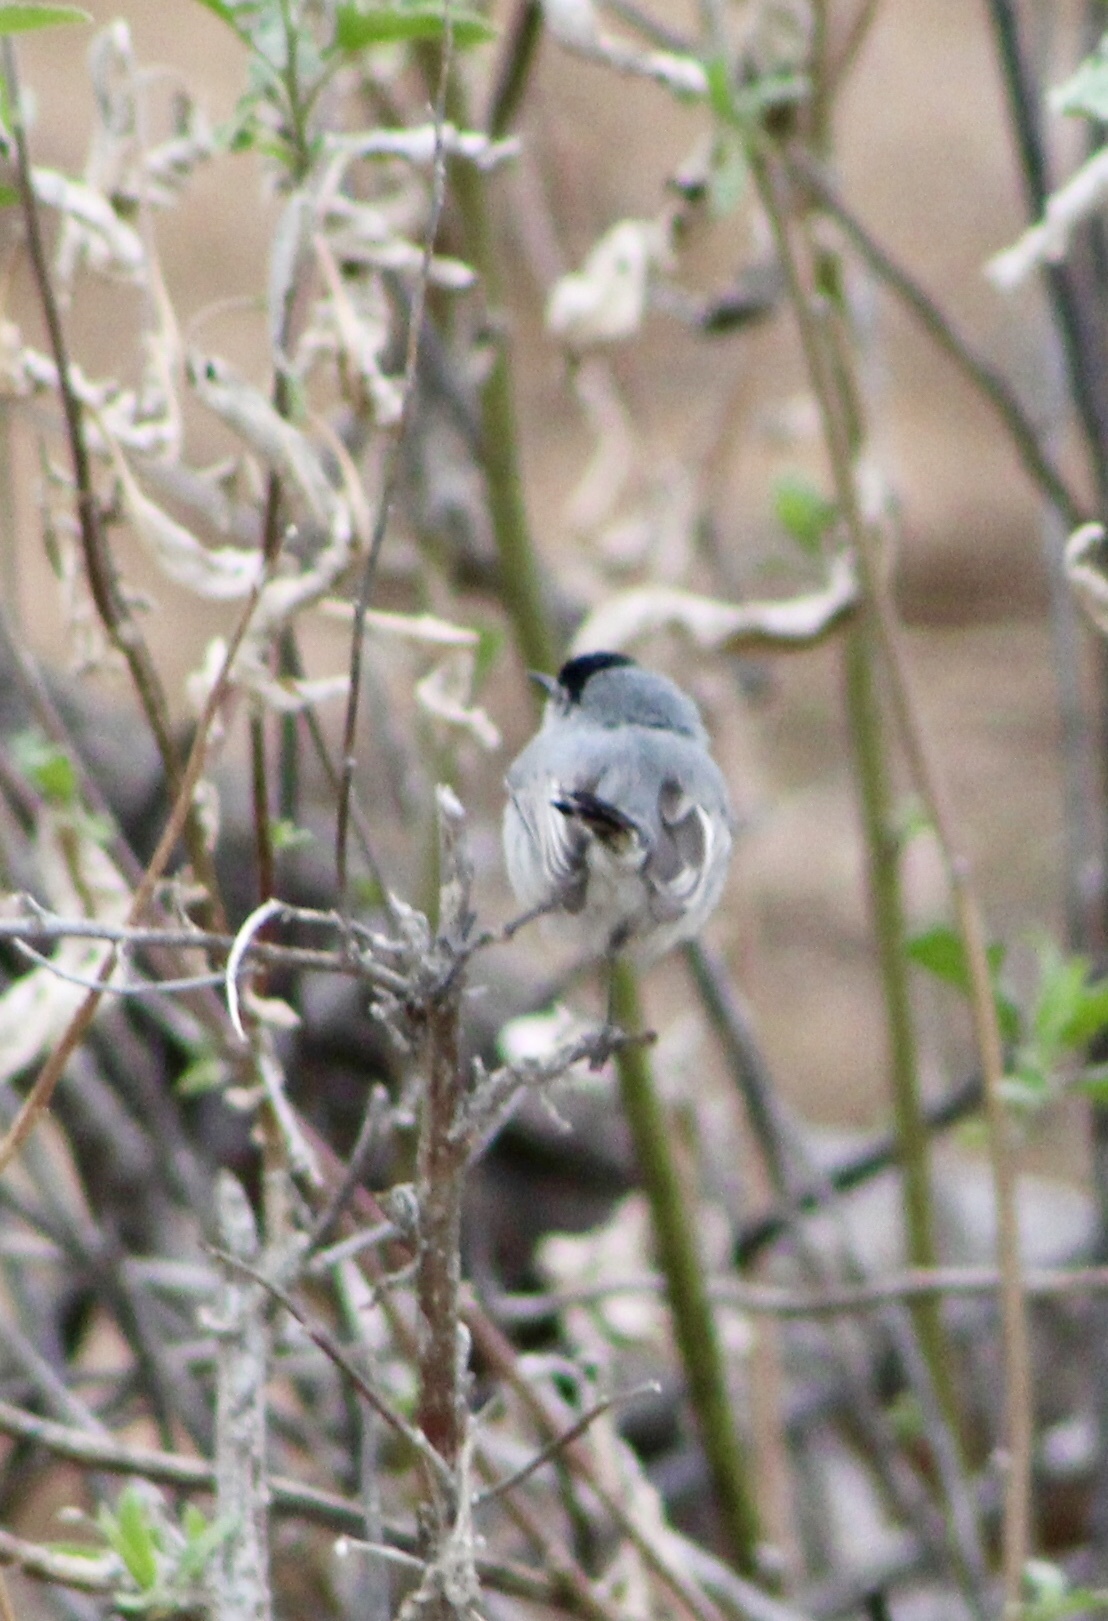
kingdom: Animalia
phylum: Chordata
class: Aves
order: Passeriformes
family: Polioptilidae
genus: Polioptila
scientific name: Polioptila melanura
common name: Black-tailed gnatcatcher
